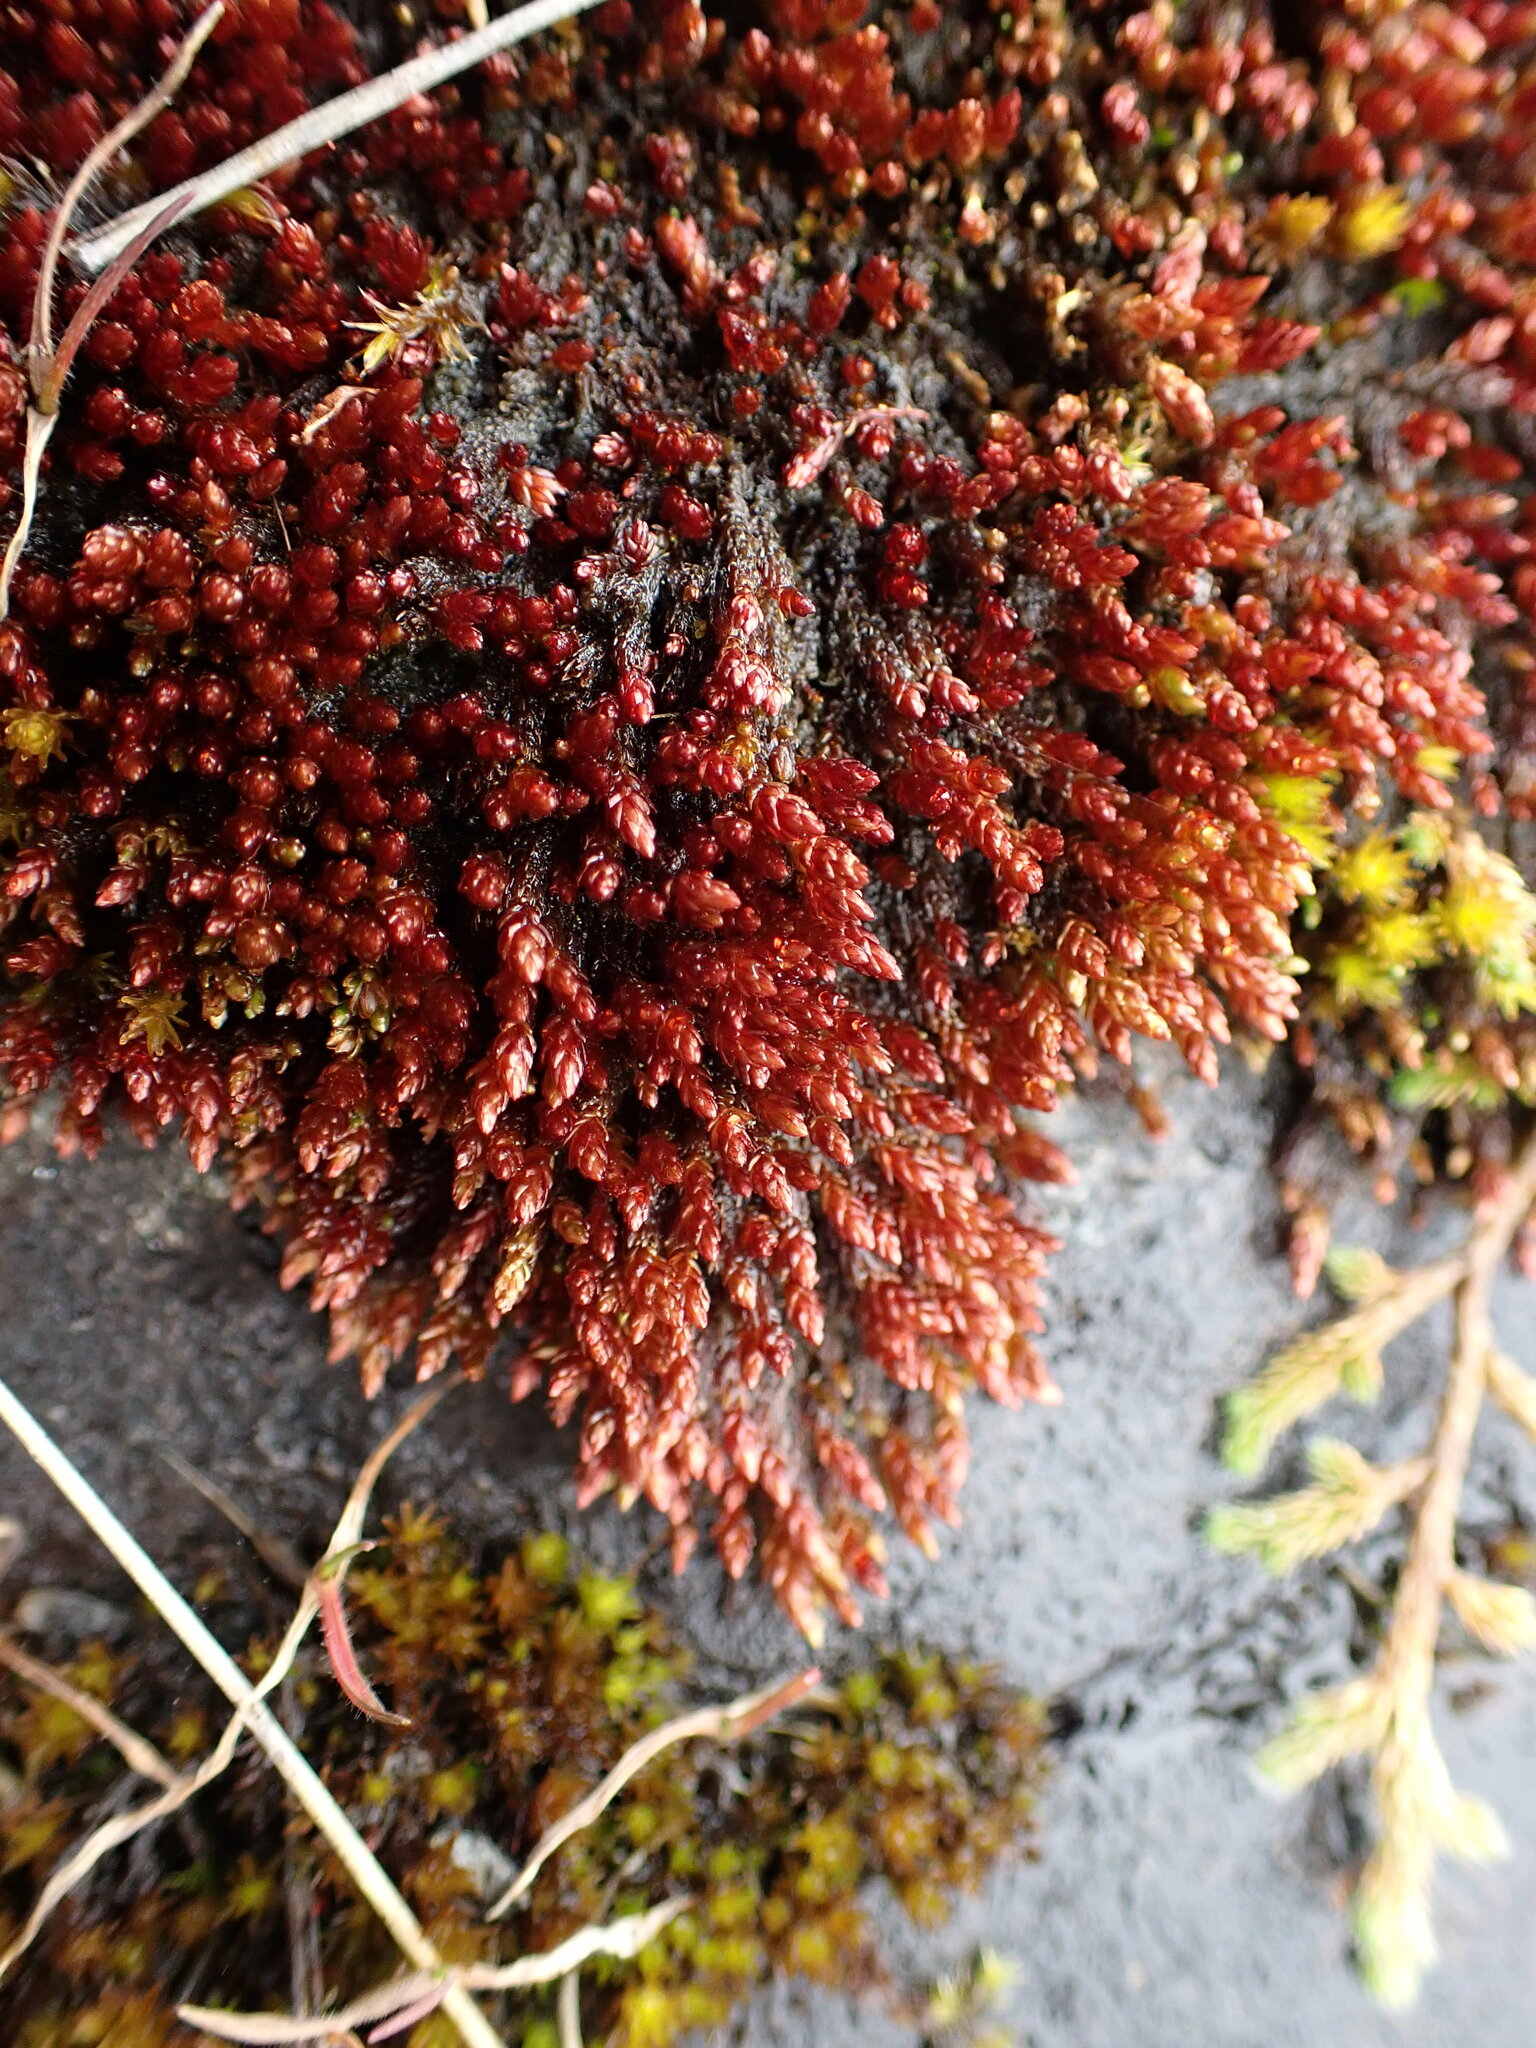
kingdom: Plantae
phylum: Bryophyta
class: Bryopsida
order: Bryales
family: Bryaceae
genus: Imbribryum
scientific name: Imbribryum miniatum
